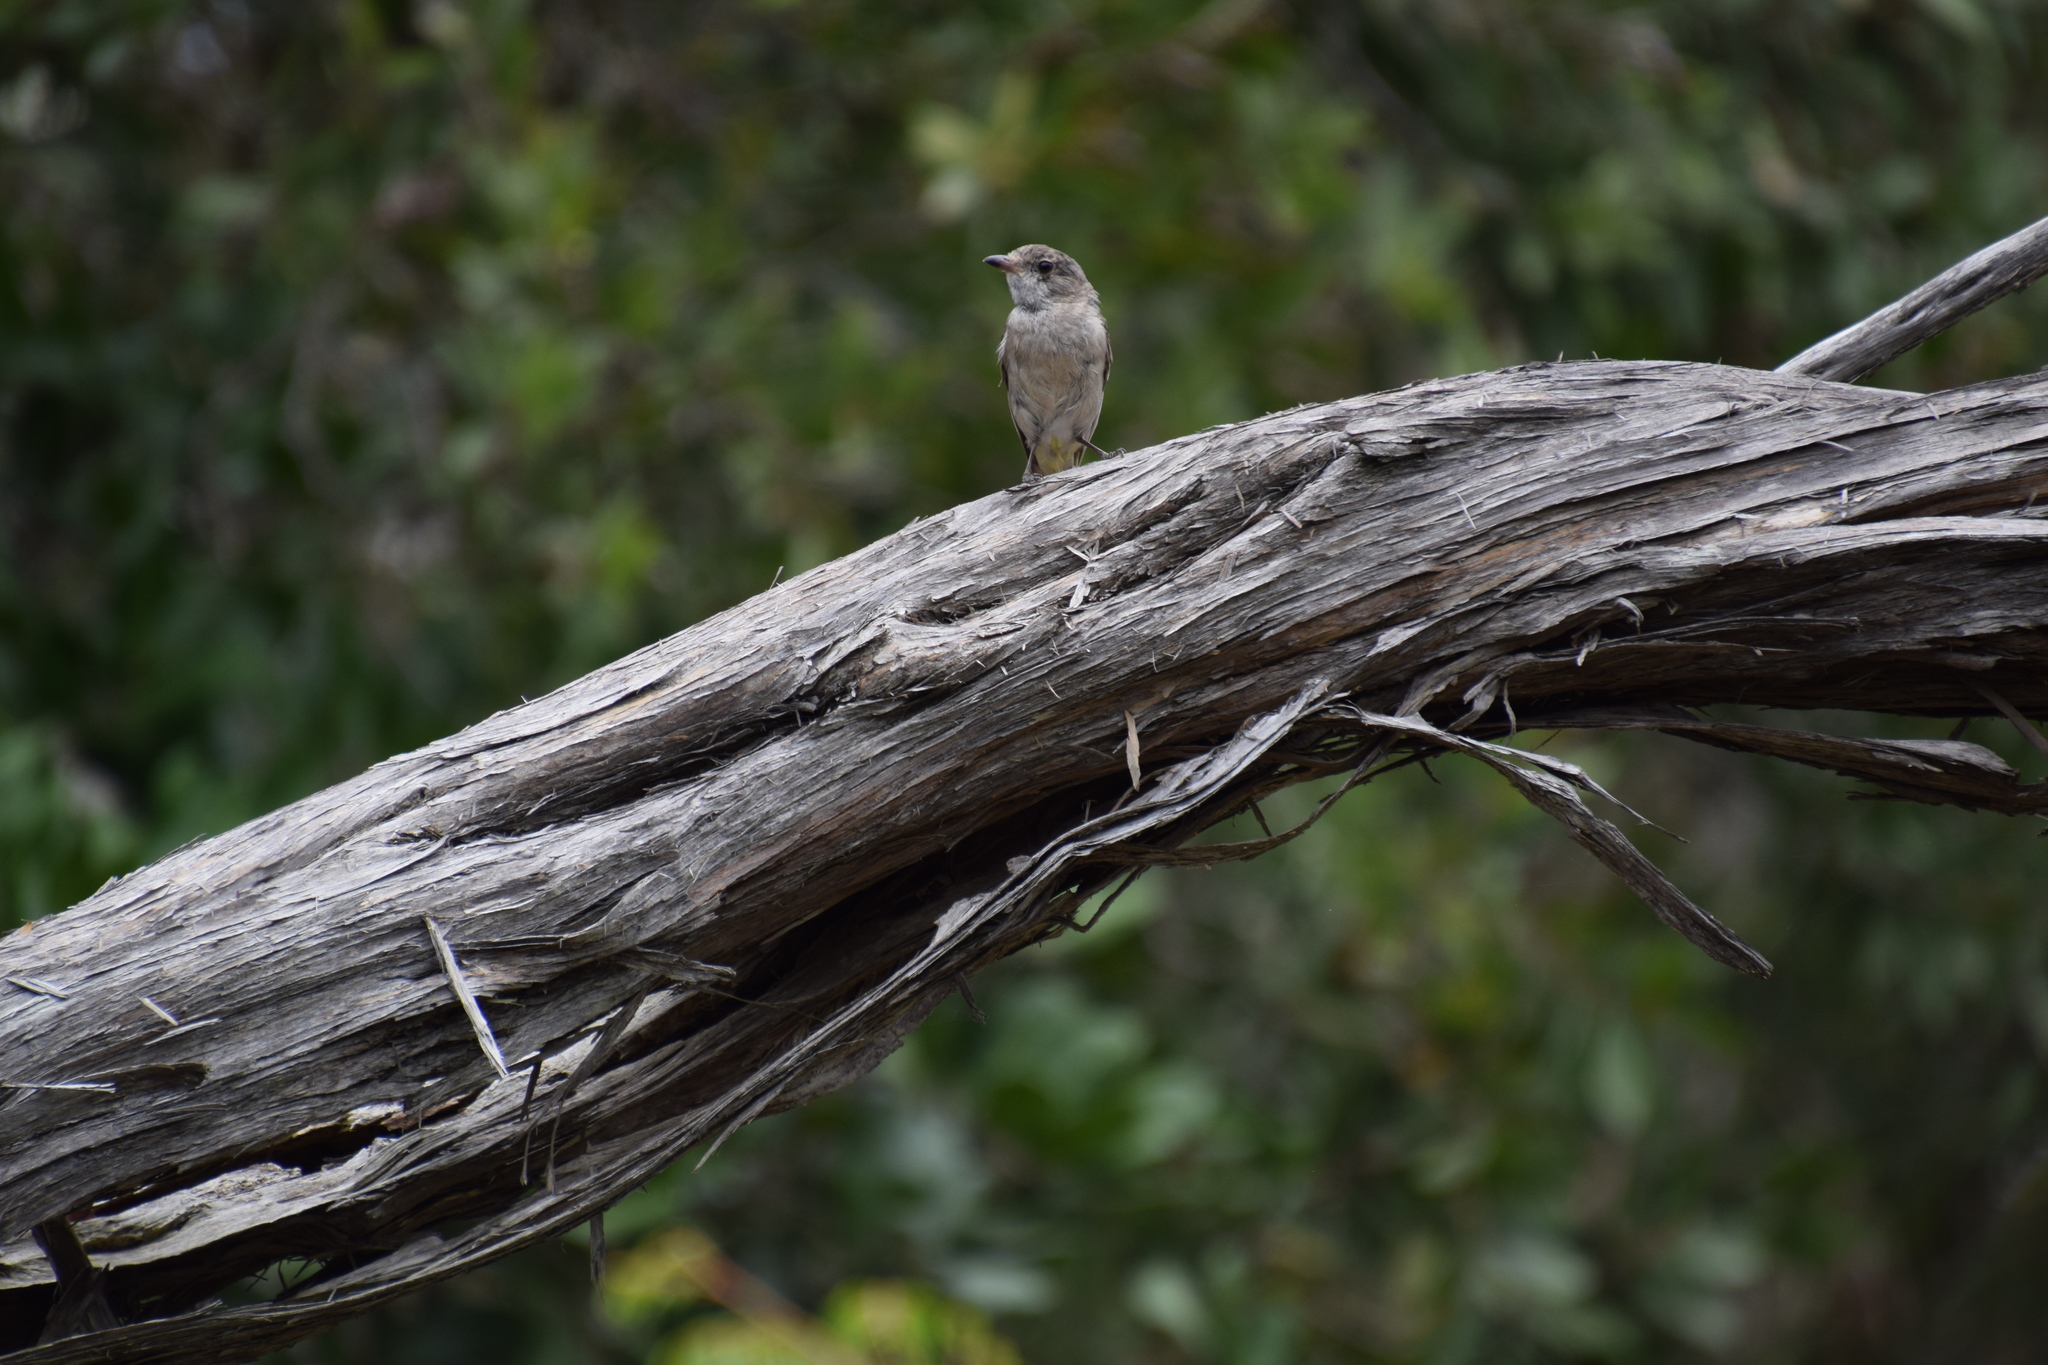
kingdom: Animalia
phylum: Chordata
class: Aves
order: Passeriformes
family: Pachycephalidae
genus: Pachycephala
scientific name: Pachycephala pectoralis
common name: Australian golden whistler
